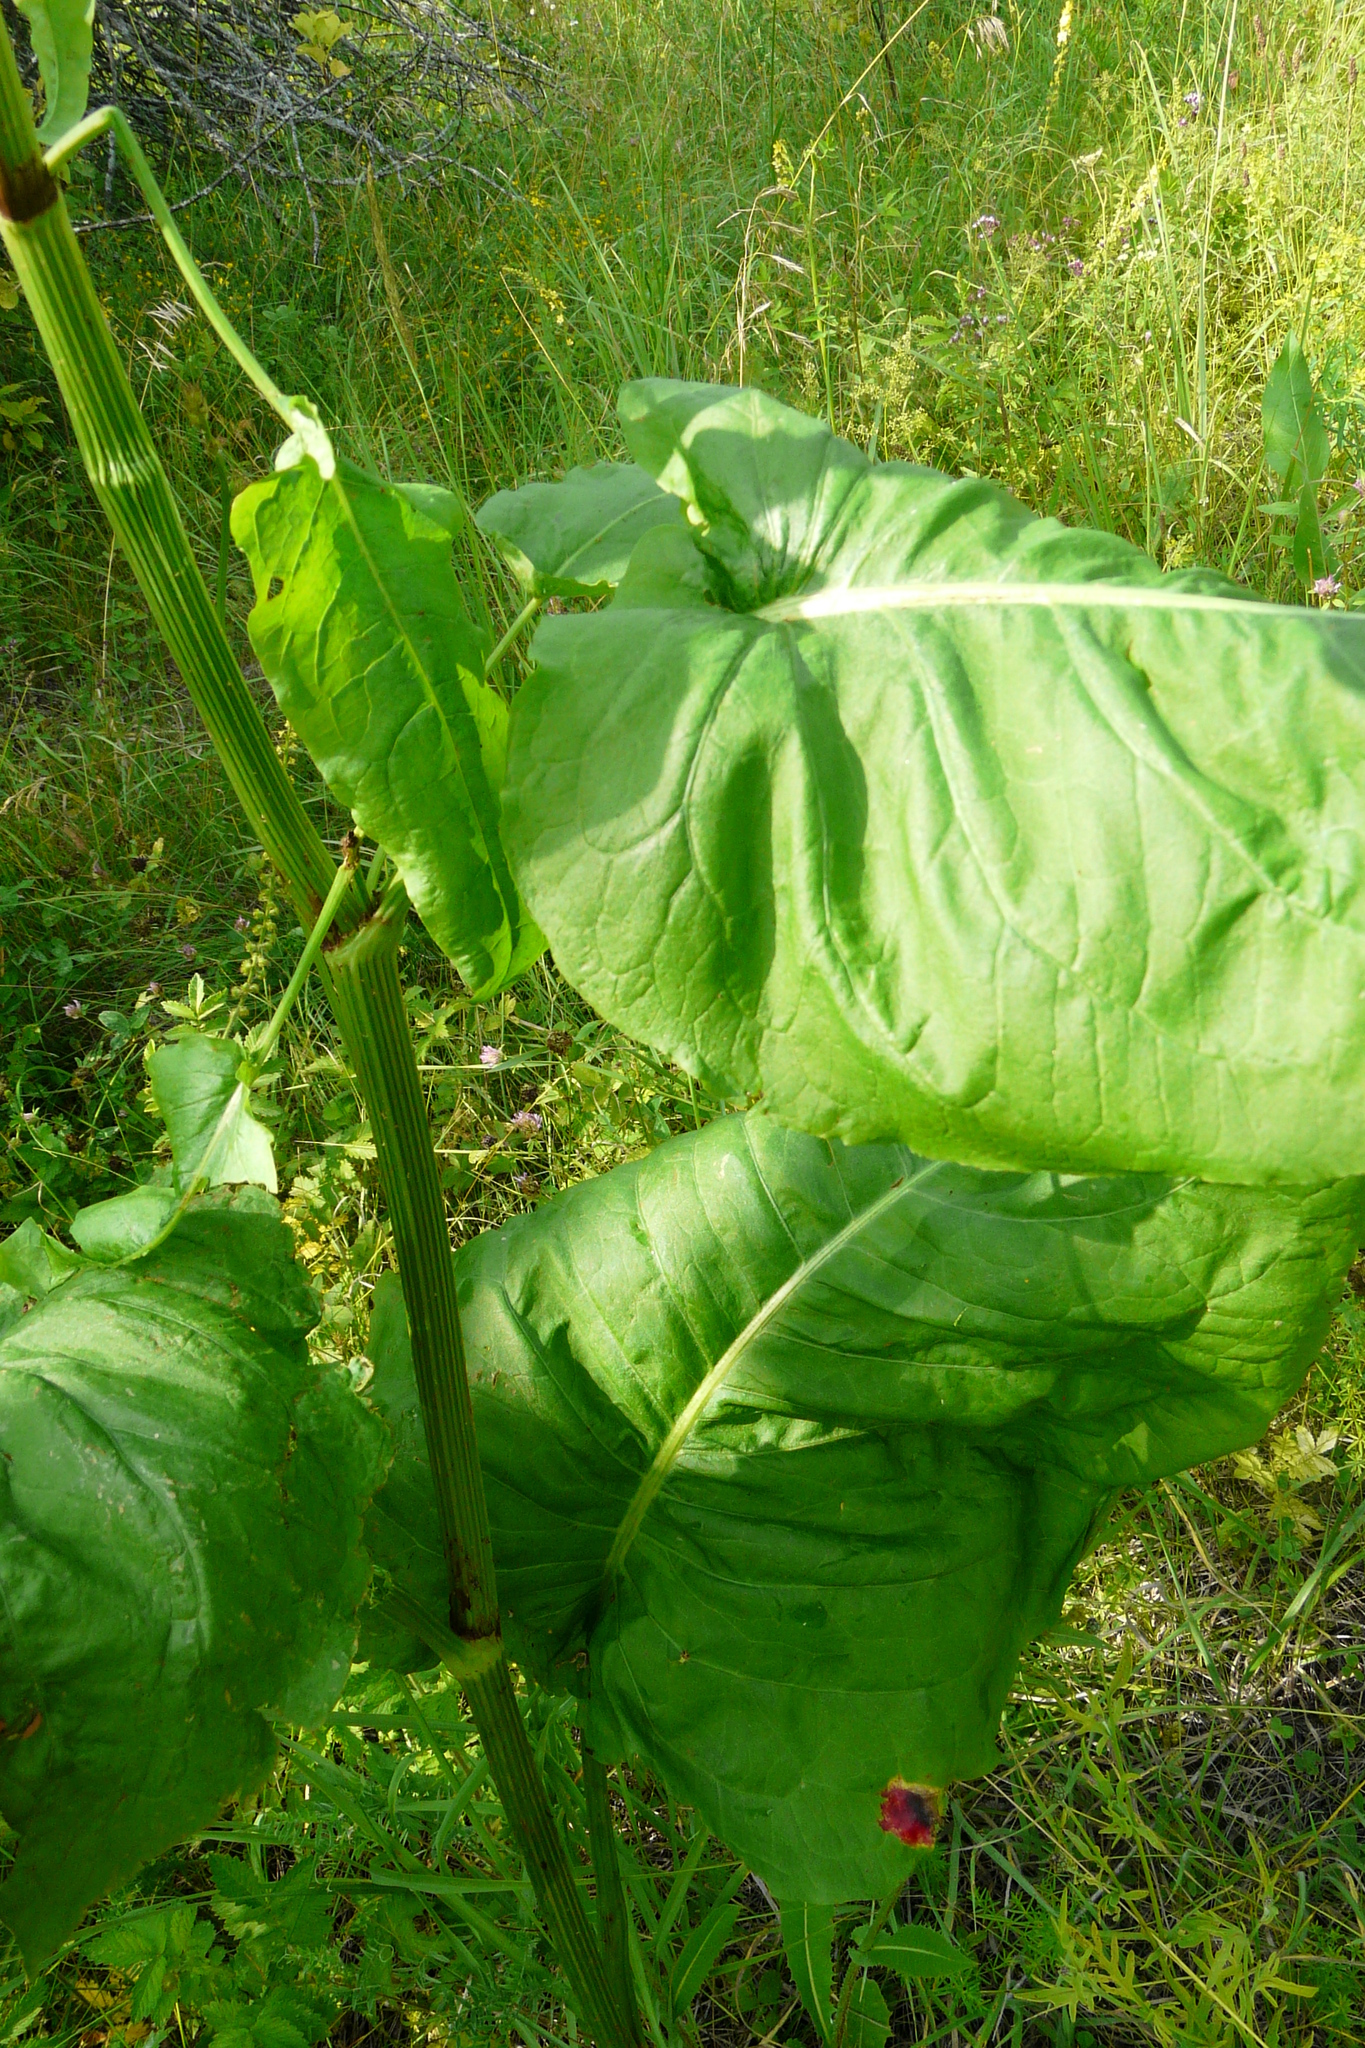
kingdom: Plantae
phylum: Tracheophyta
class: Magnoliopsida
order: Caryophyllales
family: Polygonaceae
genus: Rumex
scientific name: Rumex aquaticus
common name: Scottish dock
